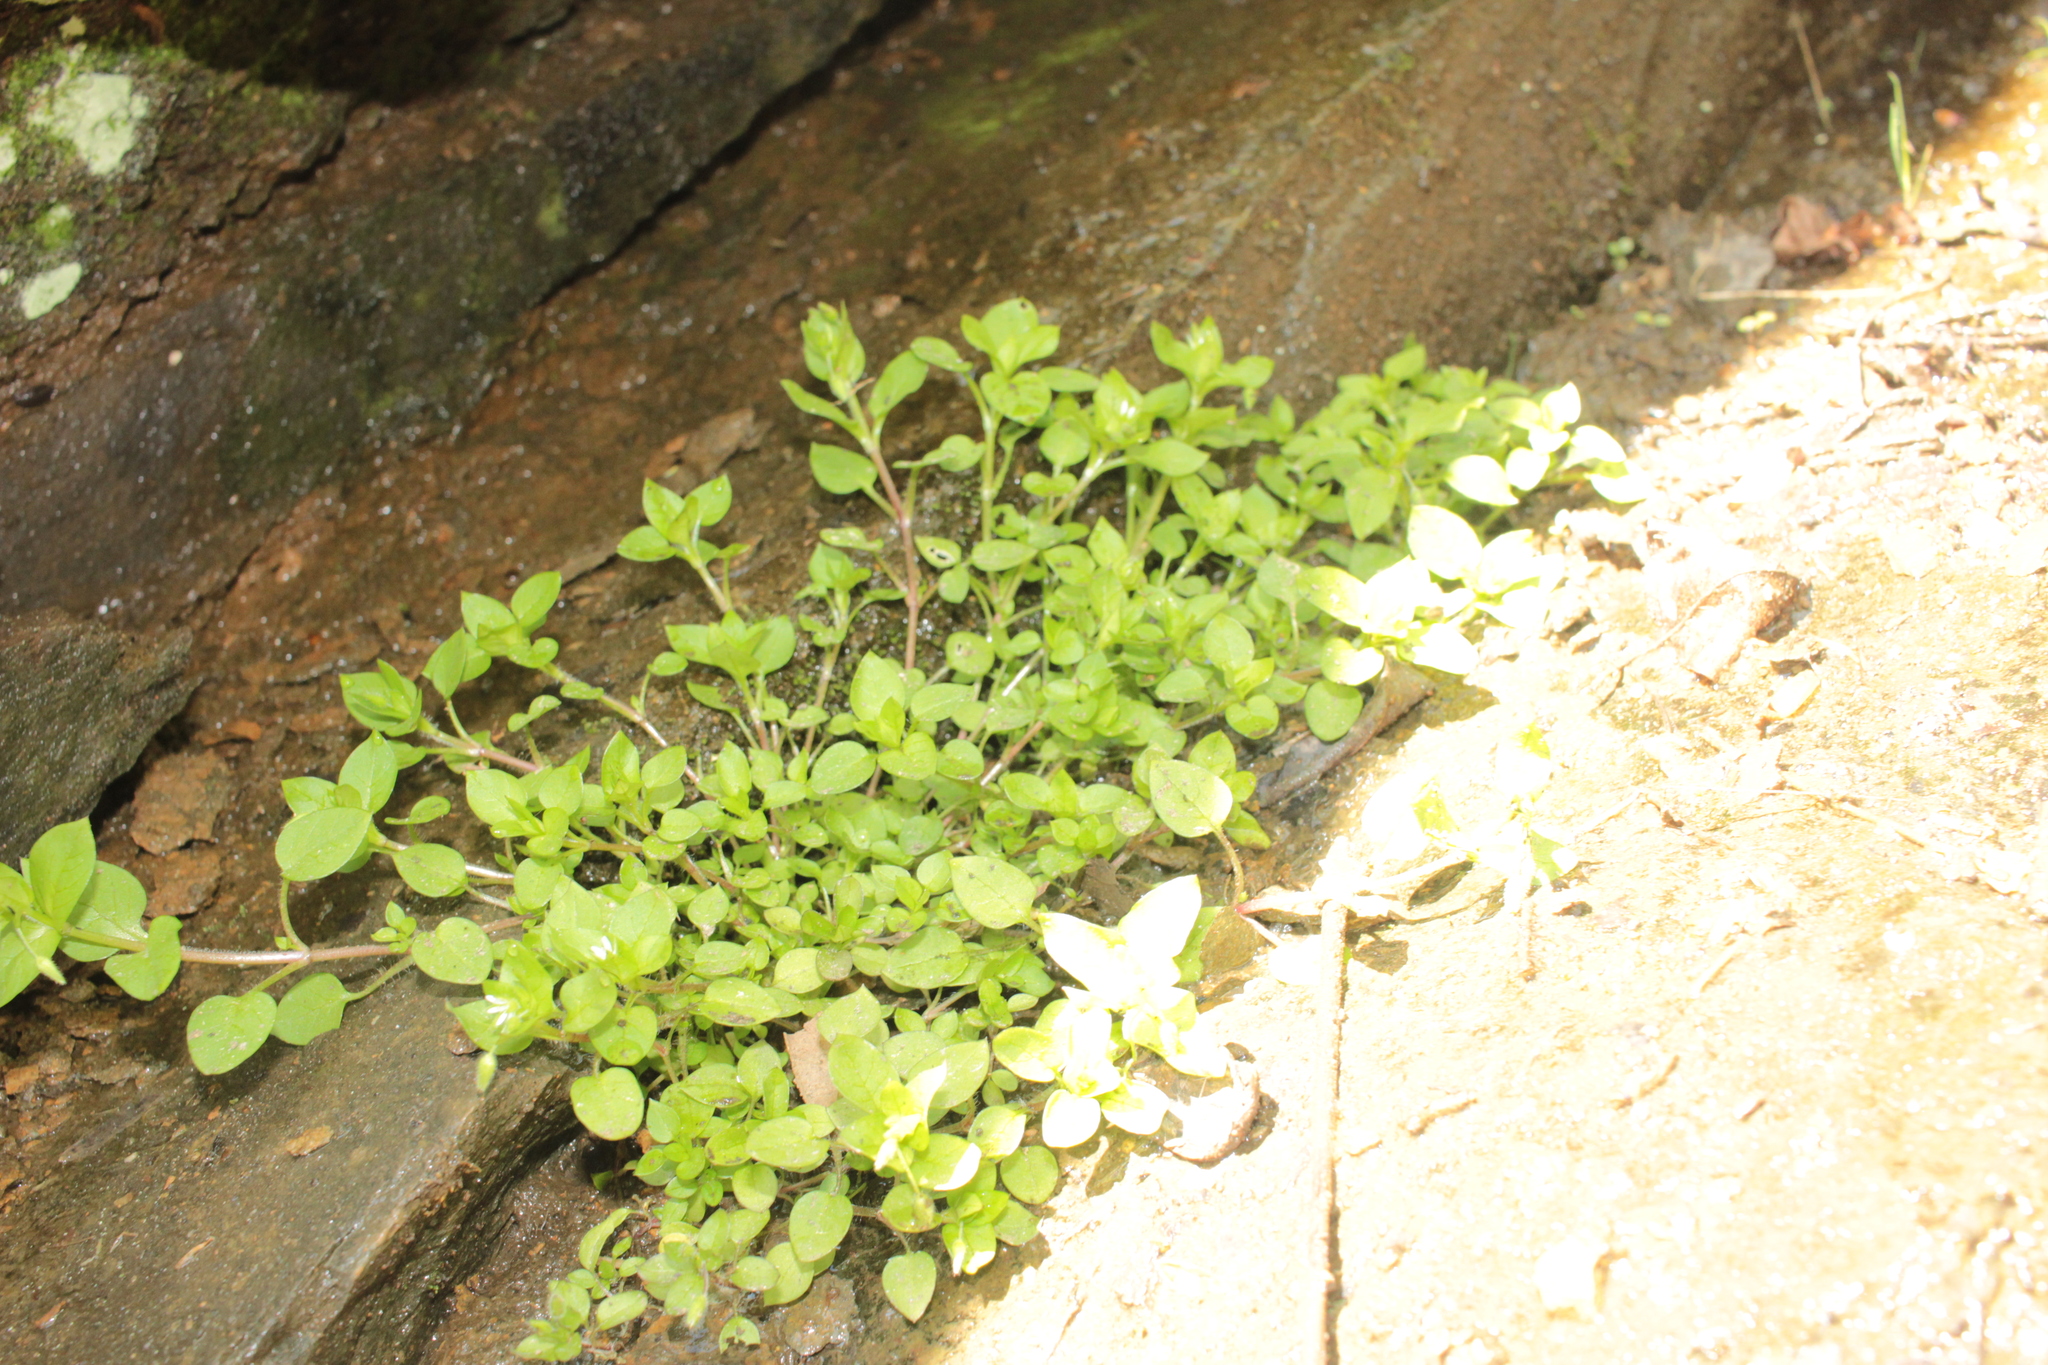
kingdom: Plantae
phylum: Tracheophyta
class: Magnoliopsida
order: Caryophyllales
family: Caryophyllaceae
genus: Stellaria
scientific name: Stellaria media
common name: Common chickweed
